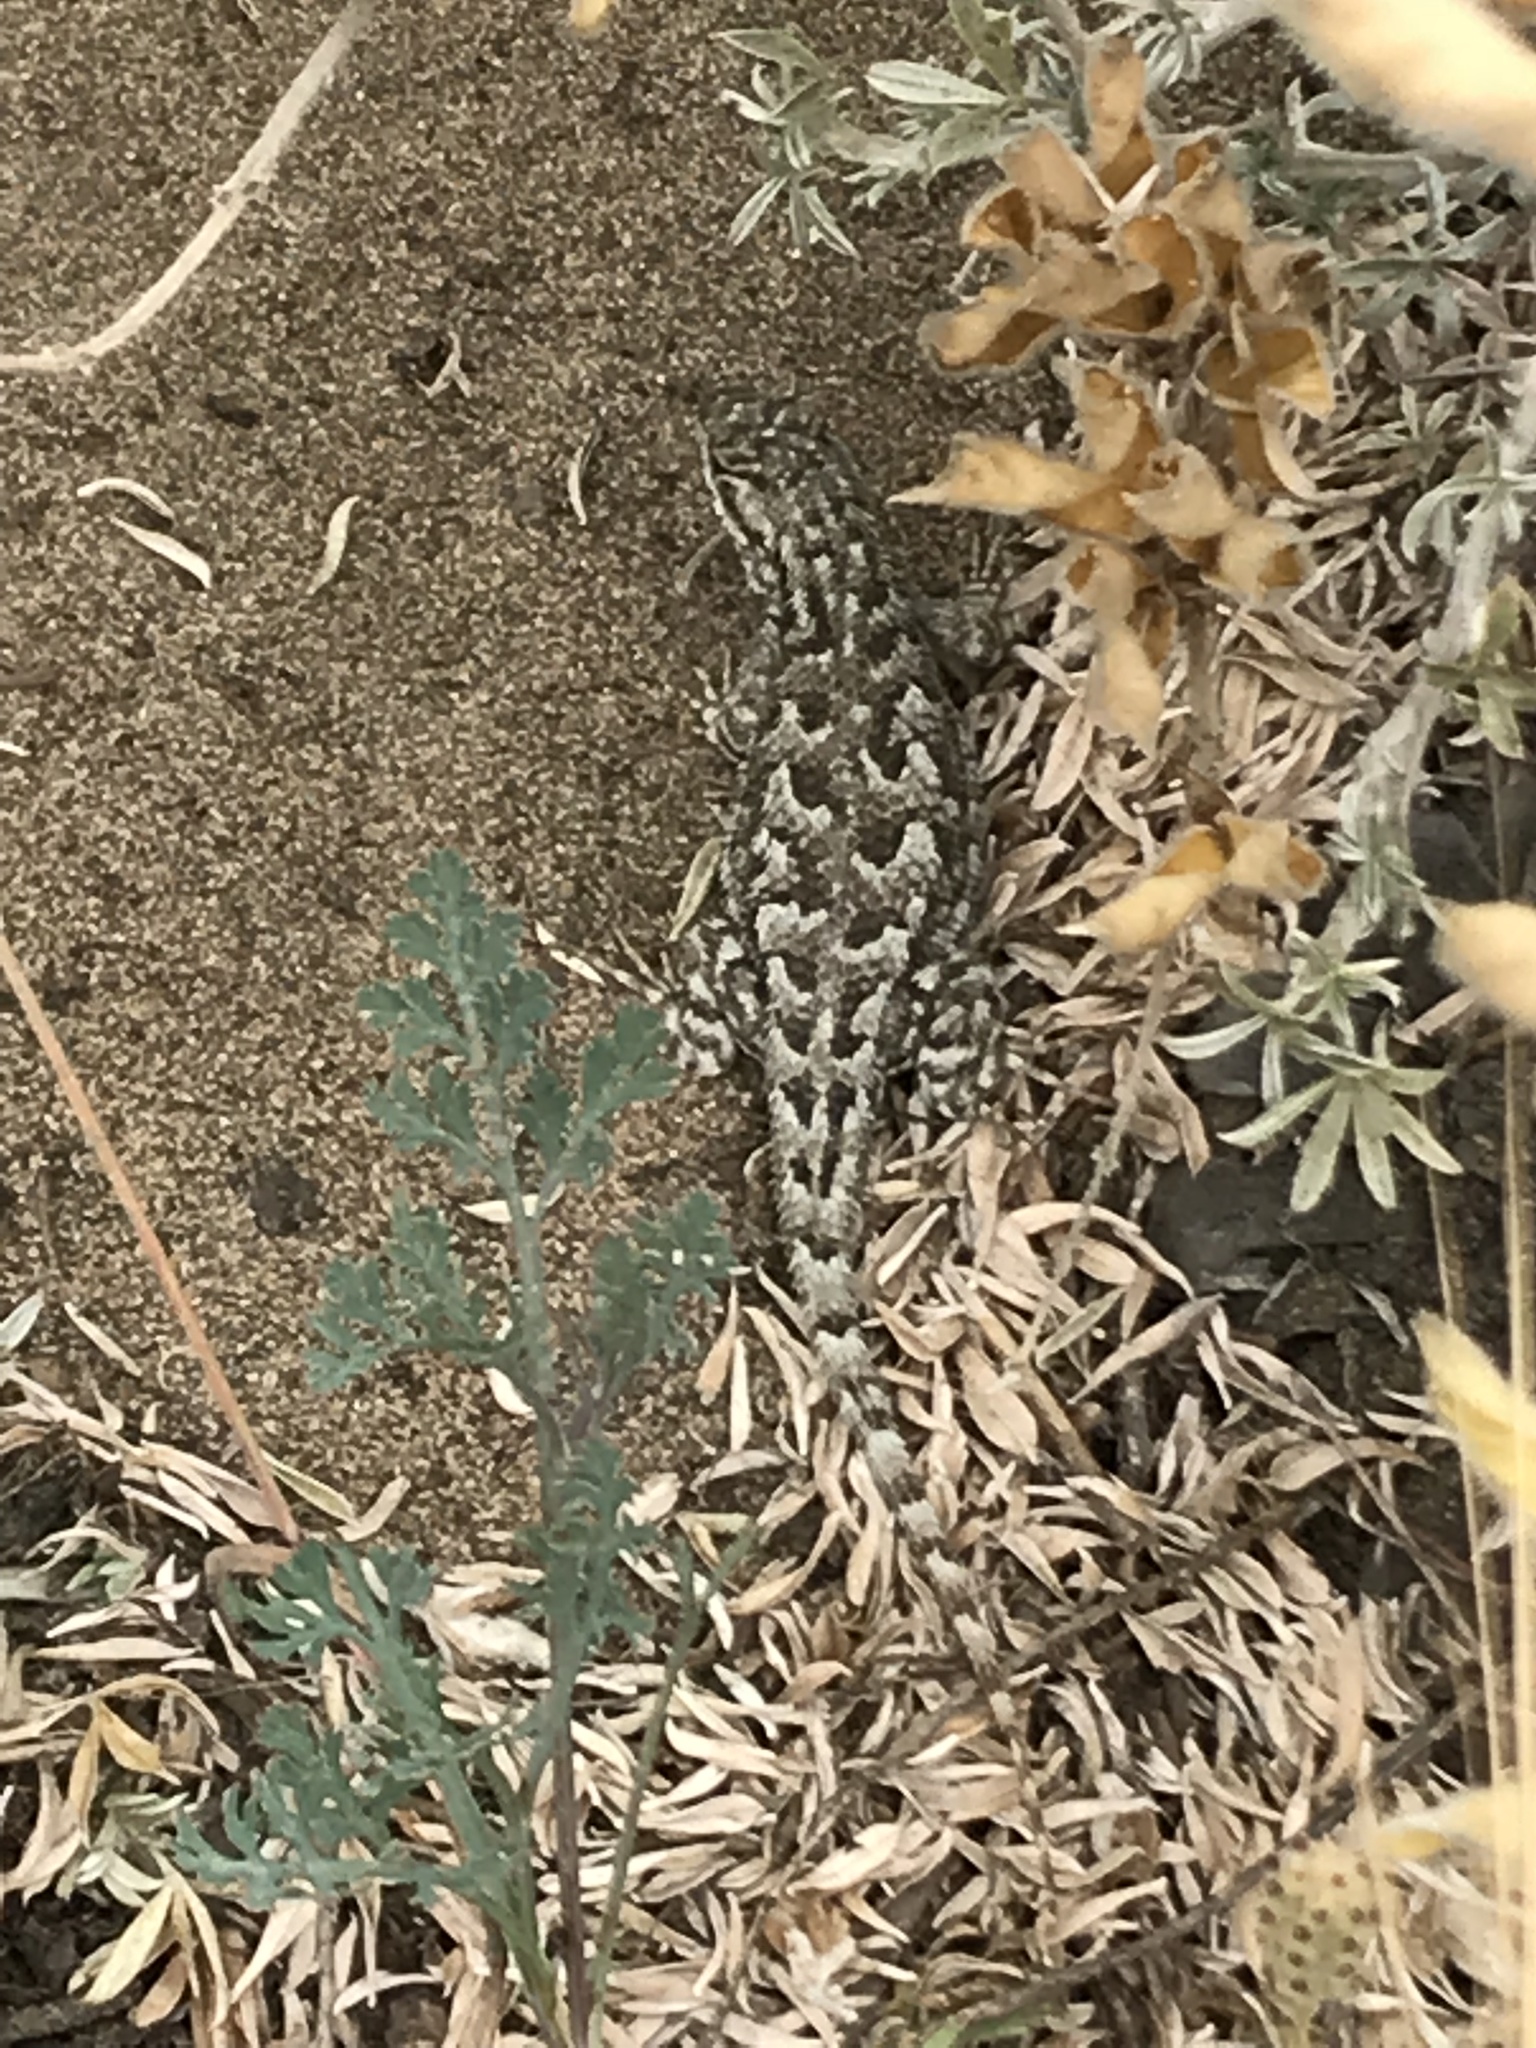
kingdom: Animalia
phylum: Chordata
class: Squamata
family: Phrynosomatidae
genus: Sceloporus
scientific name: Sceloporus occidentalis
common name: Western fence lizard
